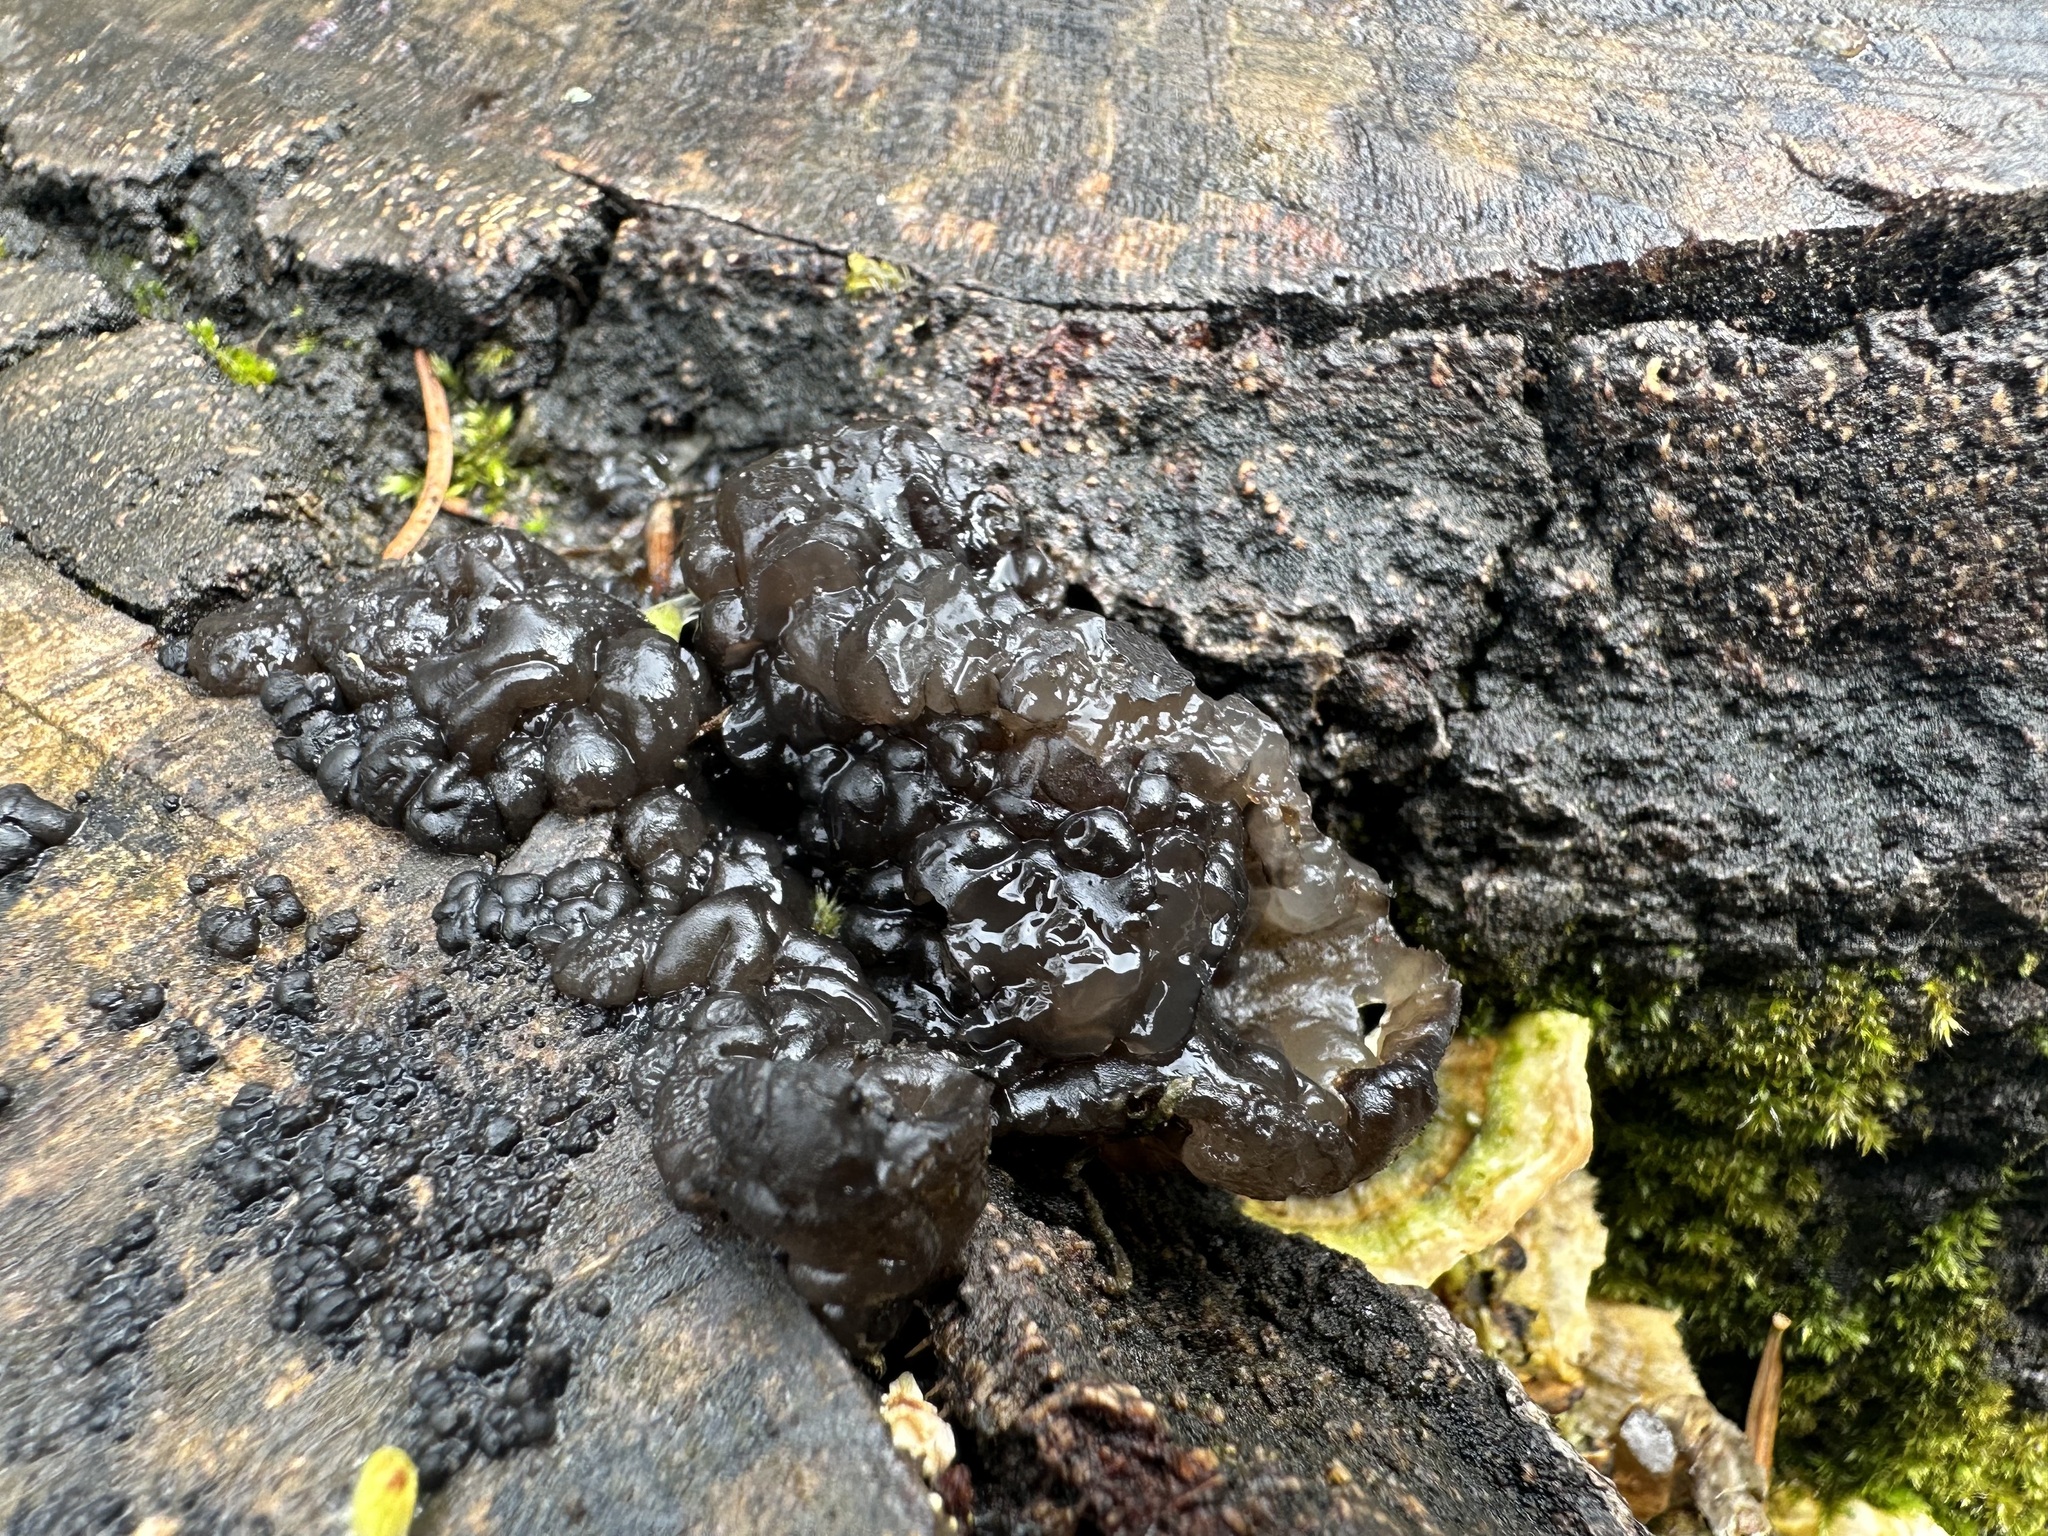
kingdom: Fungi
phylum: Basidiomycota
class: Agaricomycetes
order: Auriculariales
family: Auriculariaceae
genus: Exidia
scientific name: Exidia nigricans
